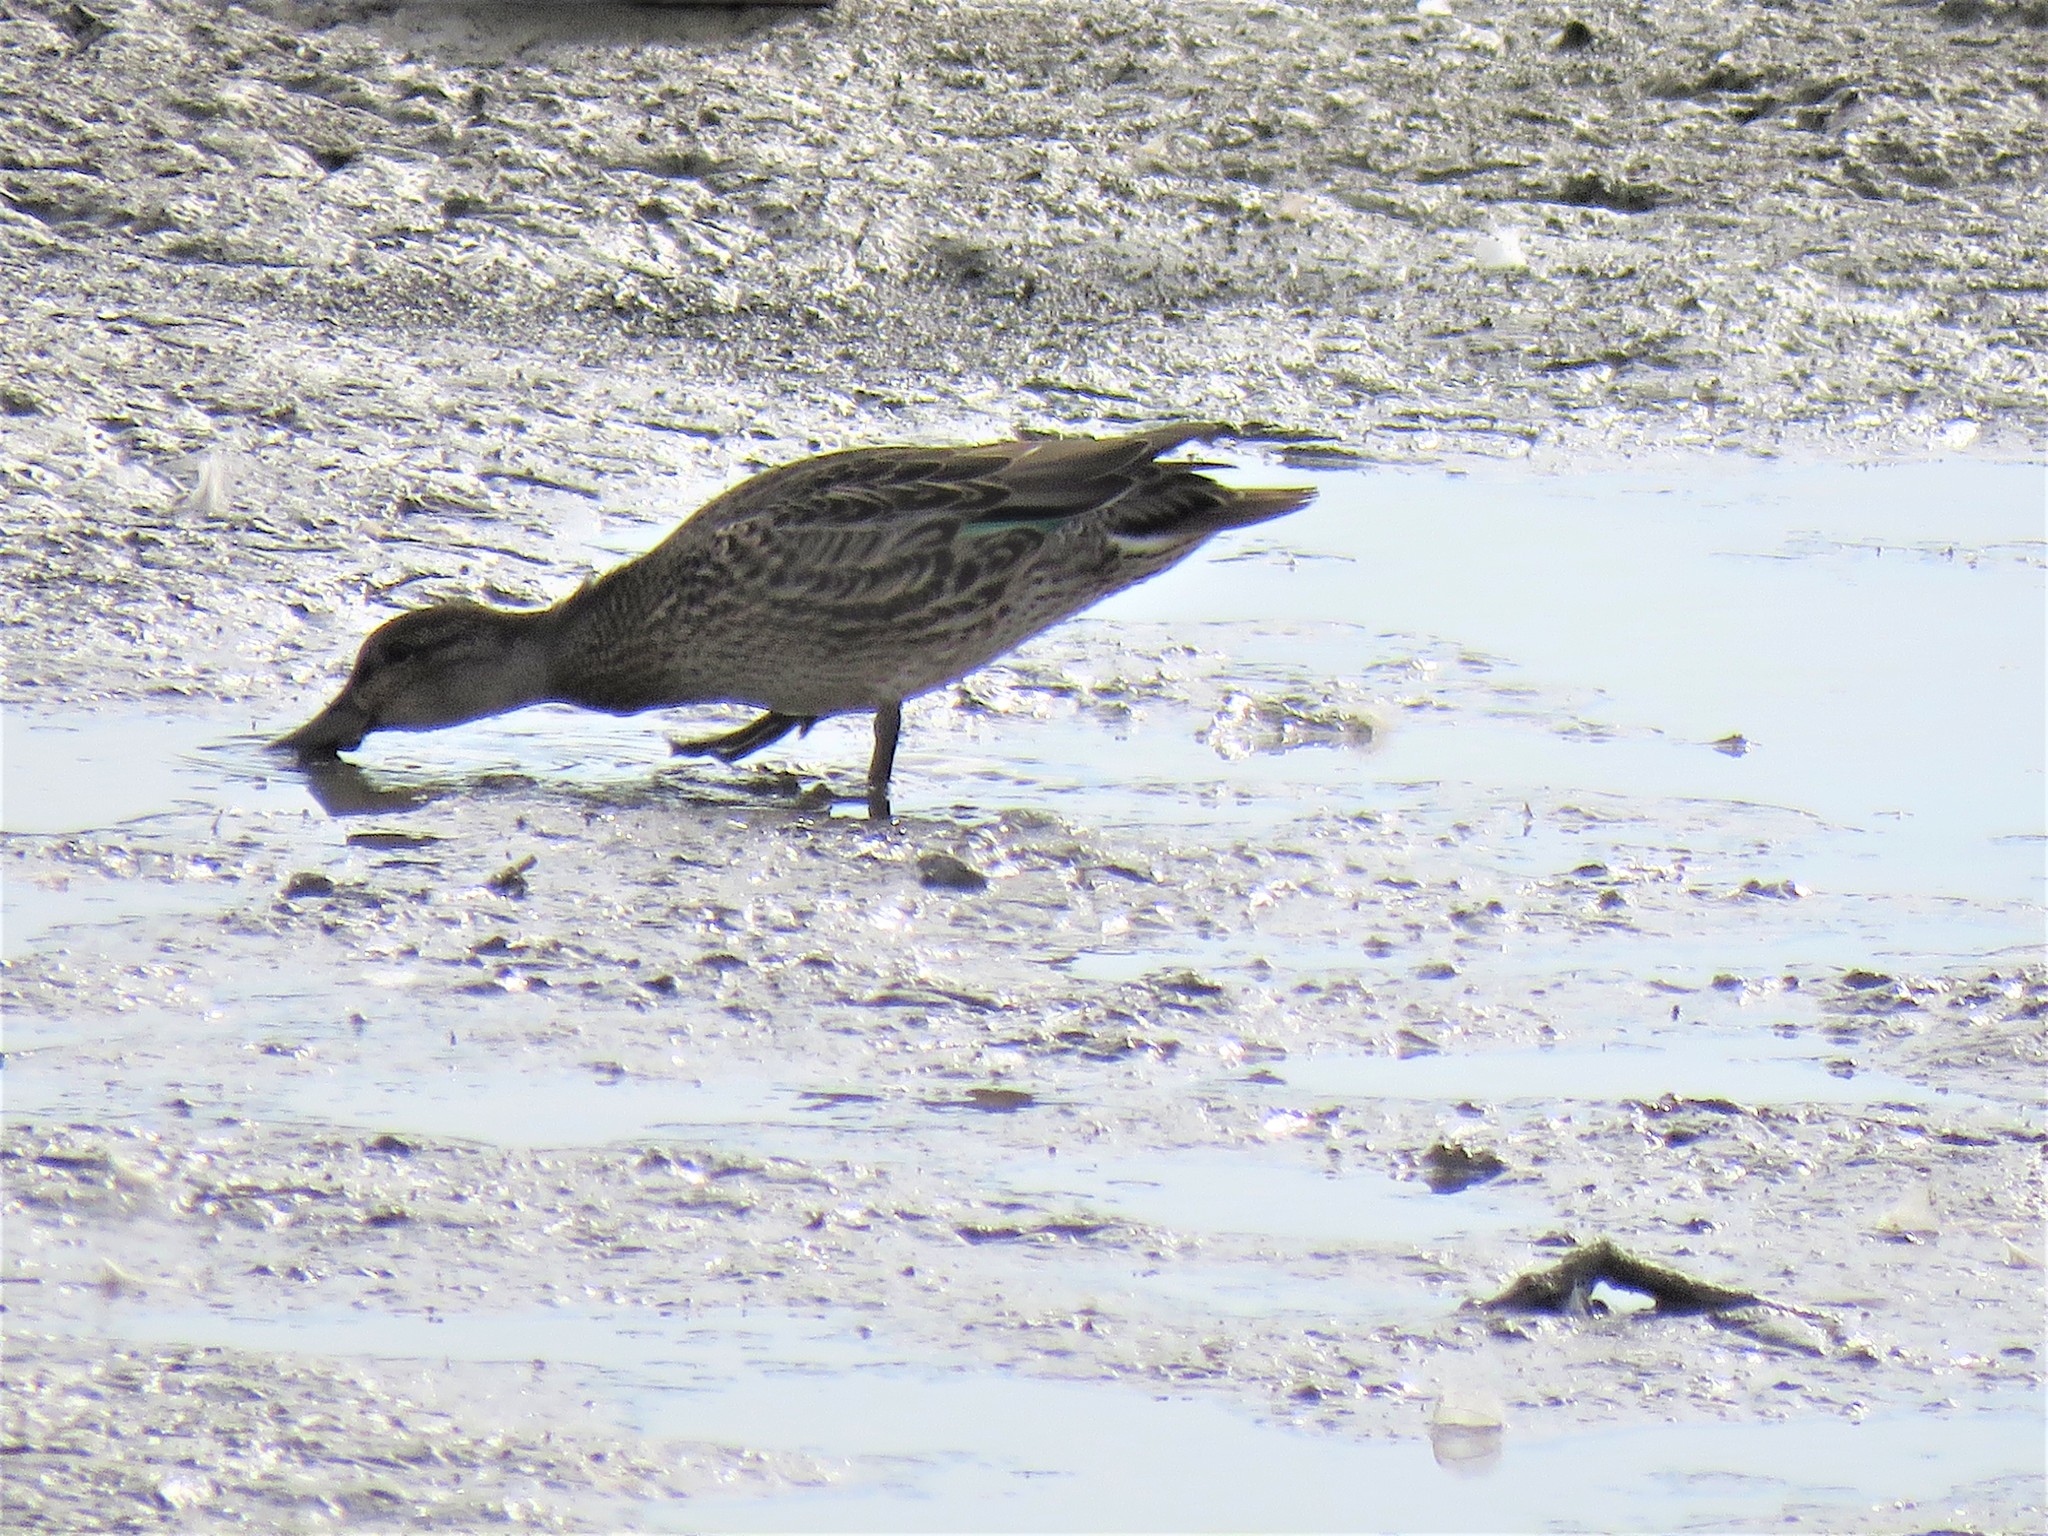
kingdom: Animalia
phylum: Chordata
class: Aves
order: Anseriformes
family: Anatidae
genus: Anas
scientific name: Anas crecca
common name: Eurasian teal
